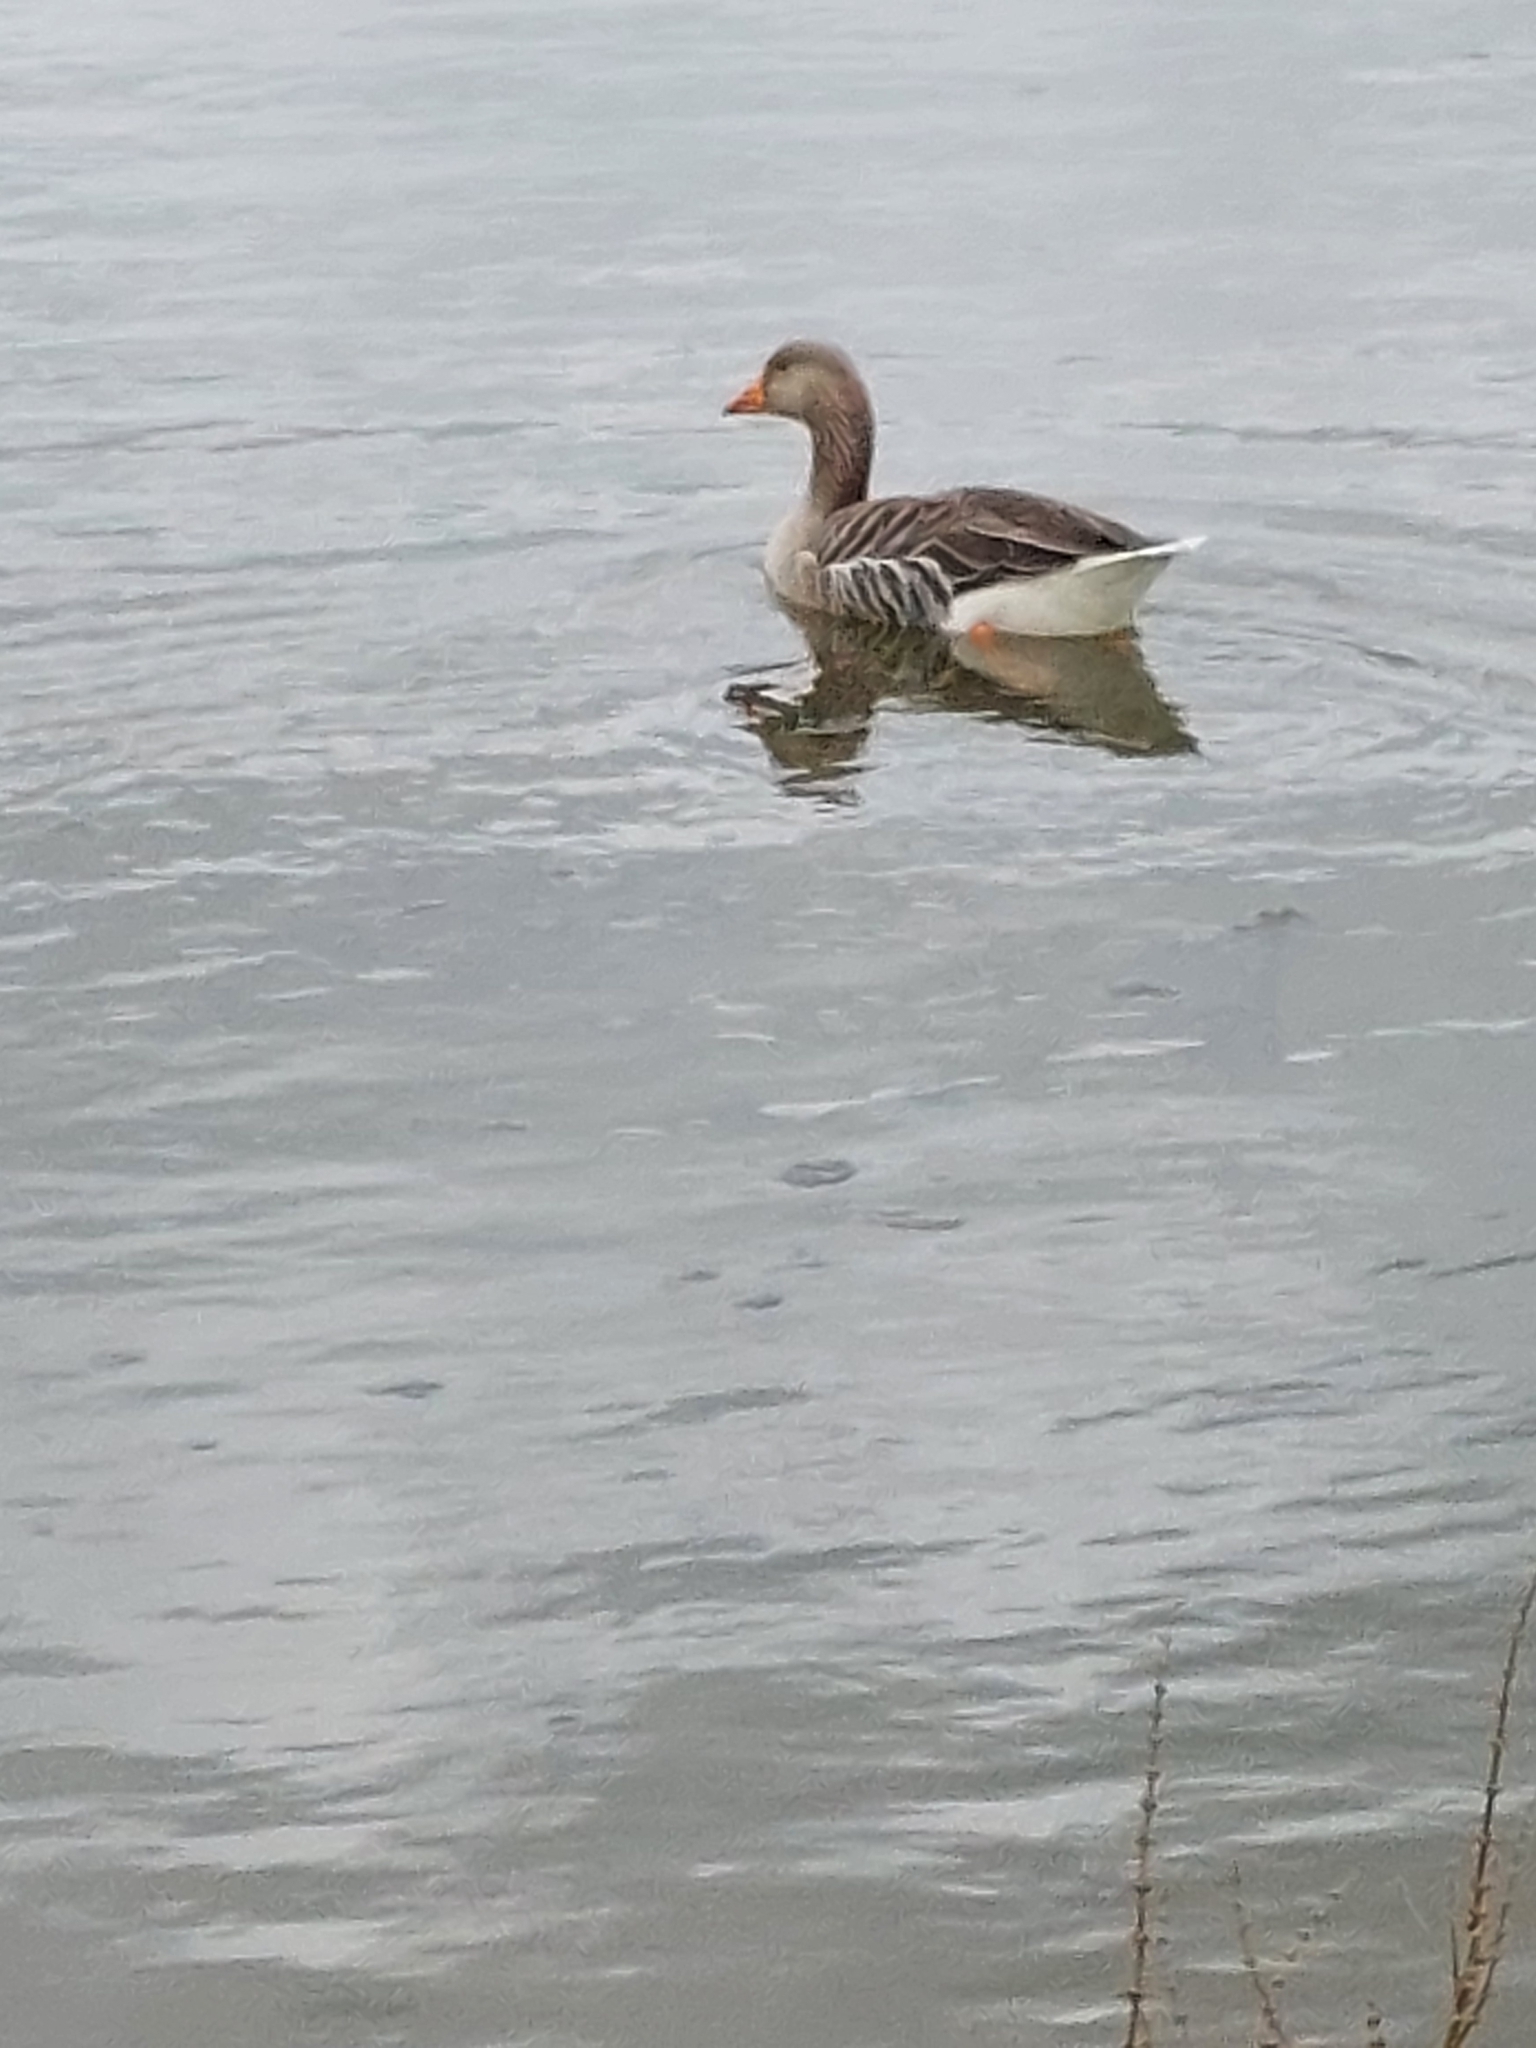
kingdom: Animalia
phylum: Chordata
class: Aves
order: Anseriformes
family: Anatidae
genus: Anser
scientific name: Anser anser
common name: Greylag goose
